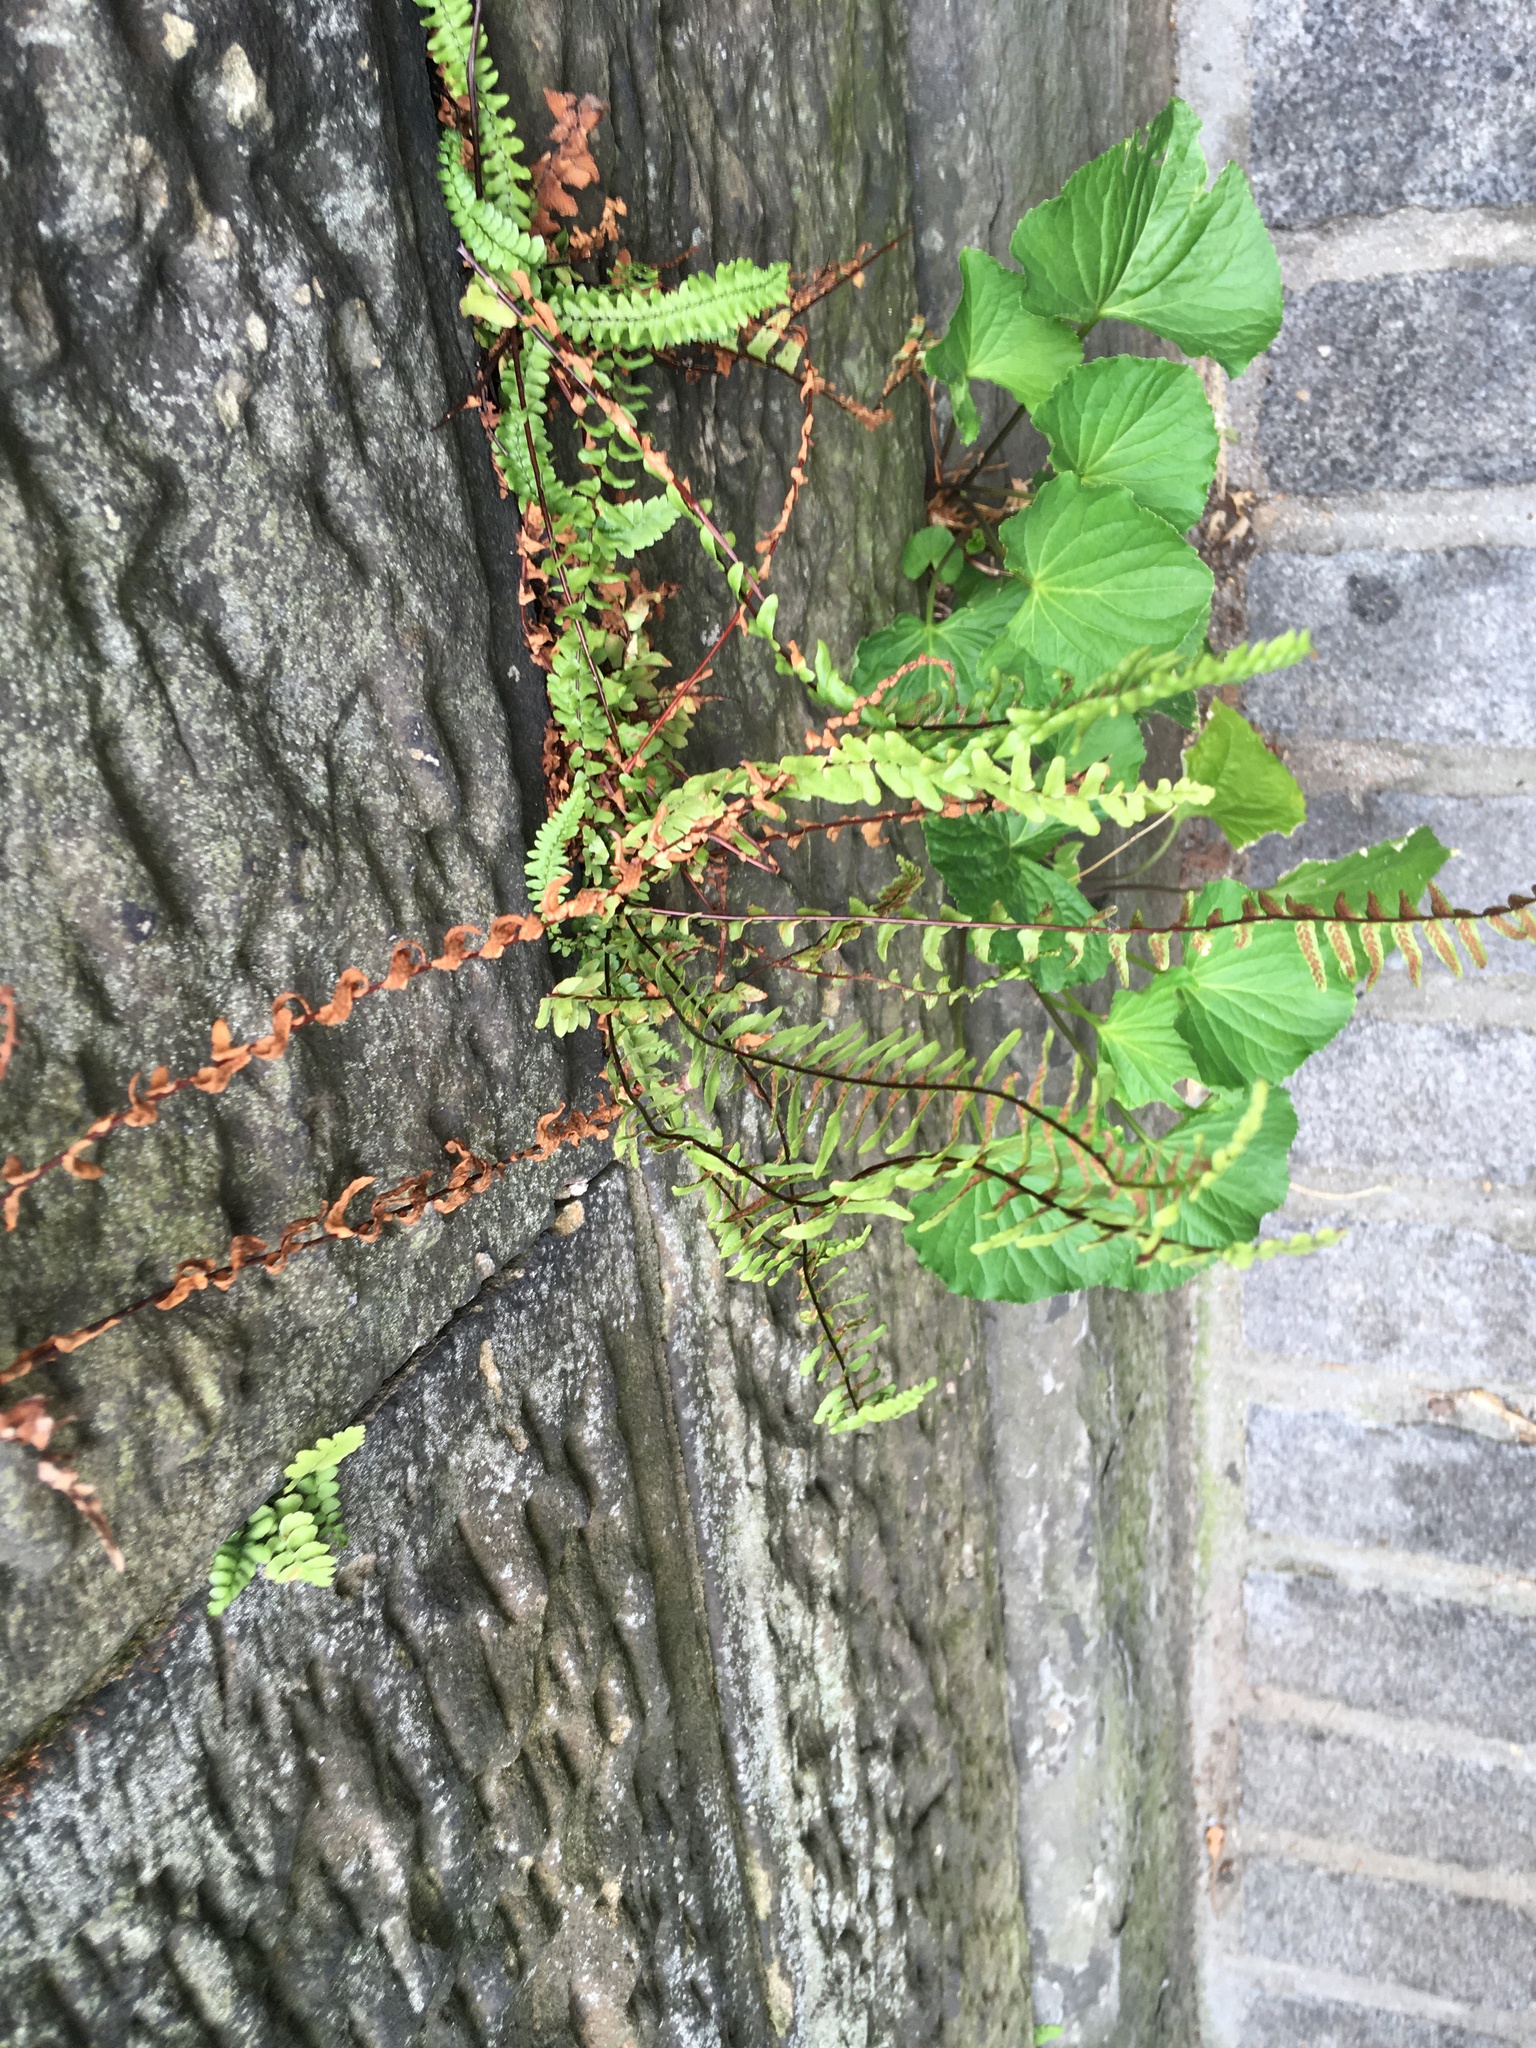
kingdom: Plantae
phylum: Tracheophyta
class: Polypodiopsida
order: Polypodiales
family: Aspleniaceae
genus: Asplenium
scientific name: Asplenium platyneuron
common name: Ebony spleenwort
